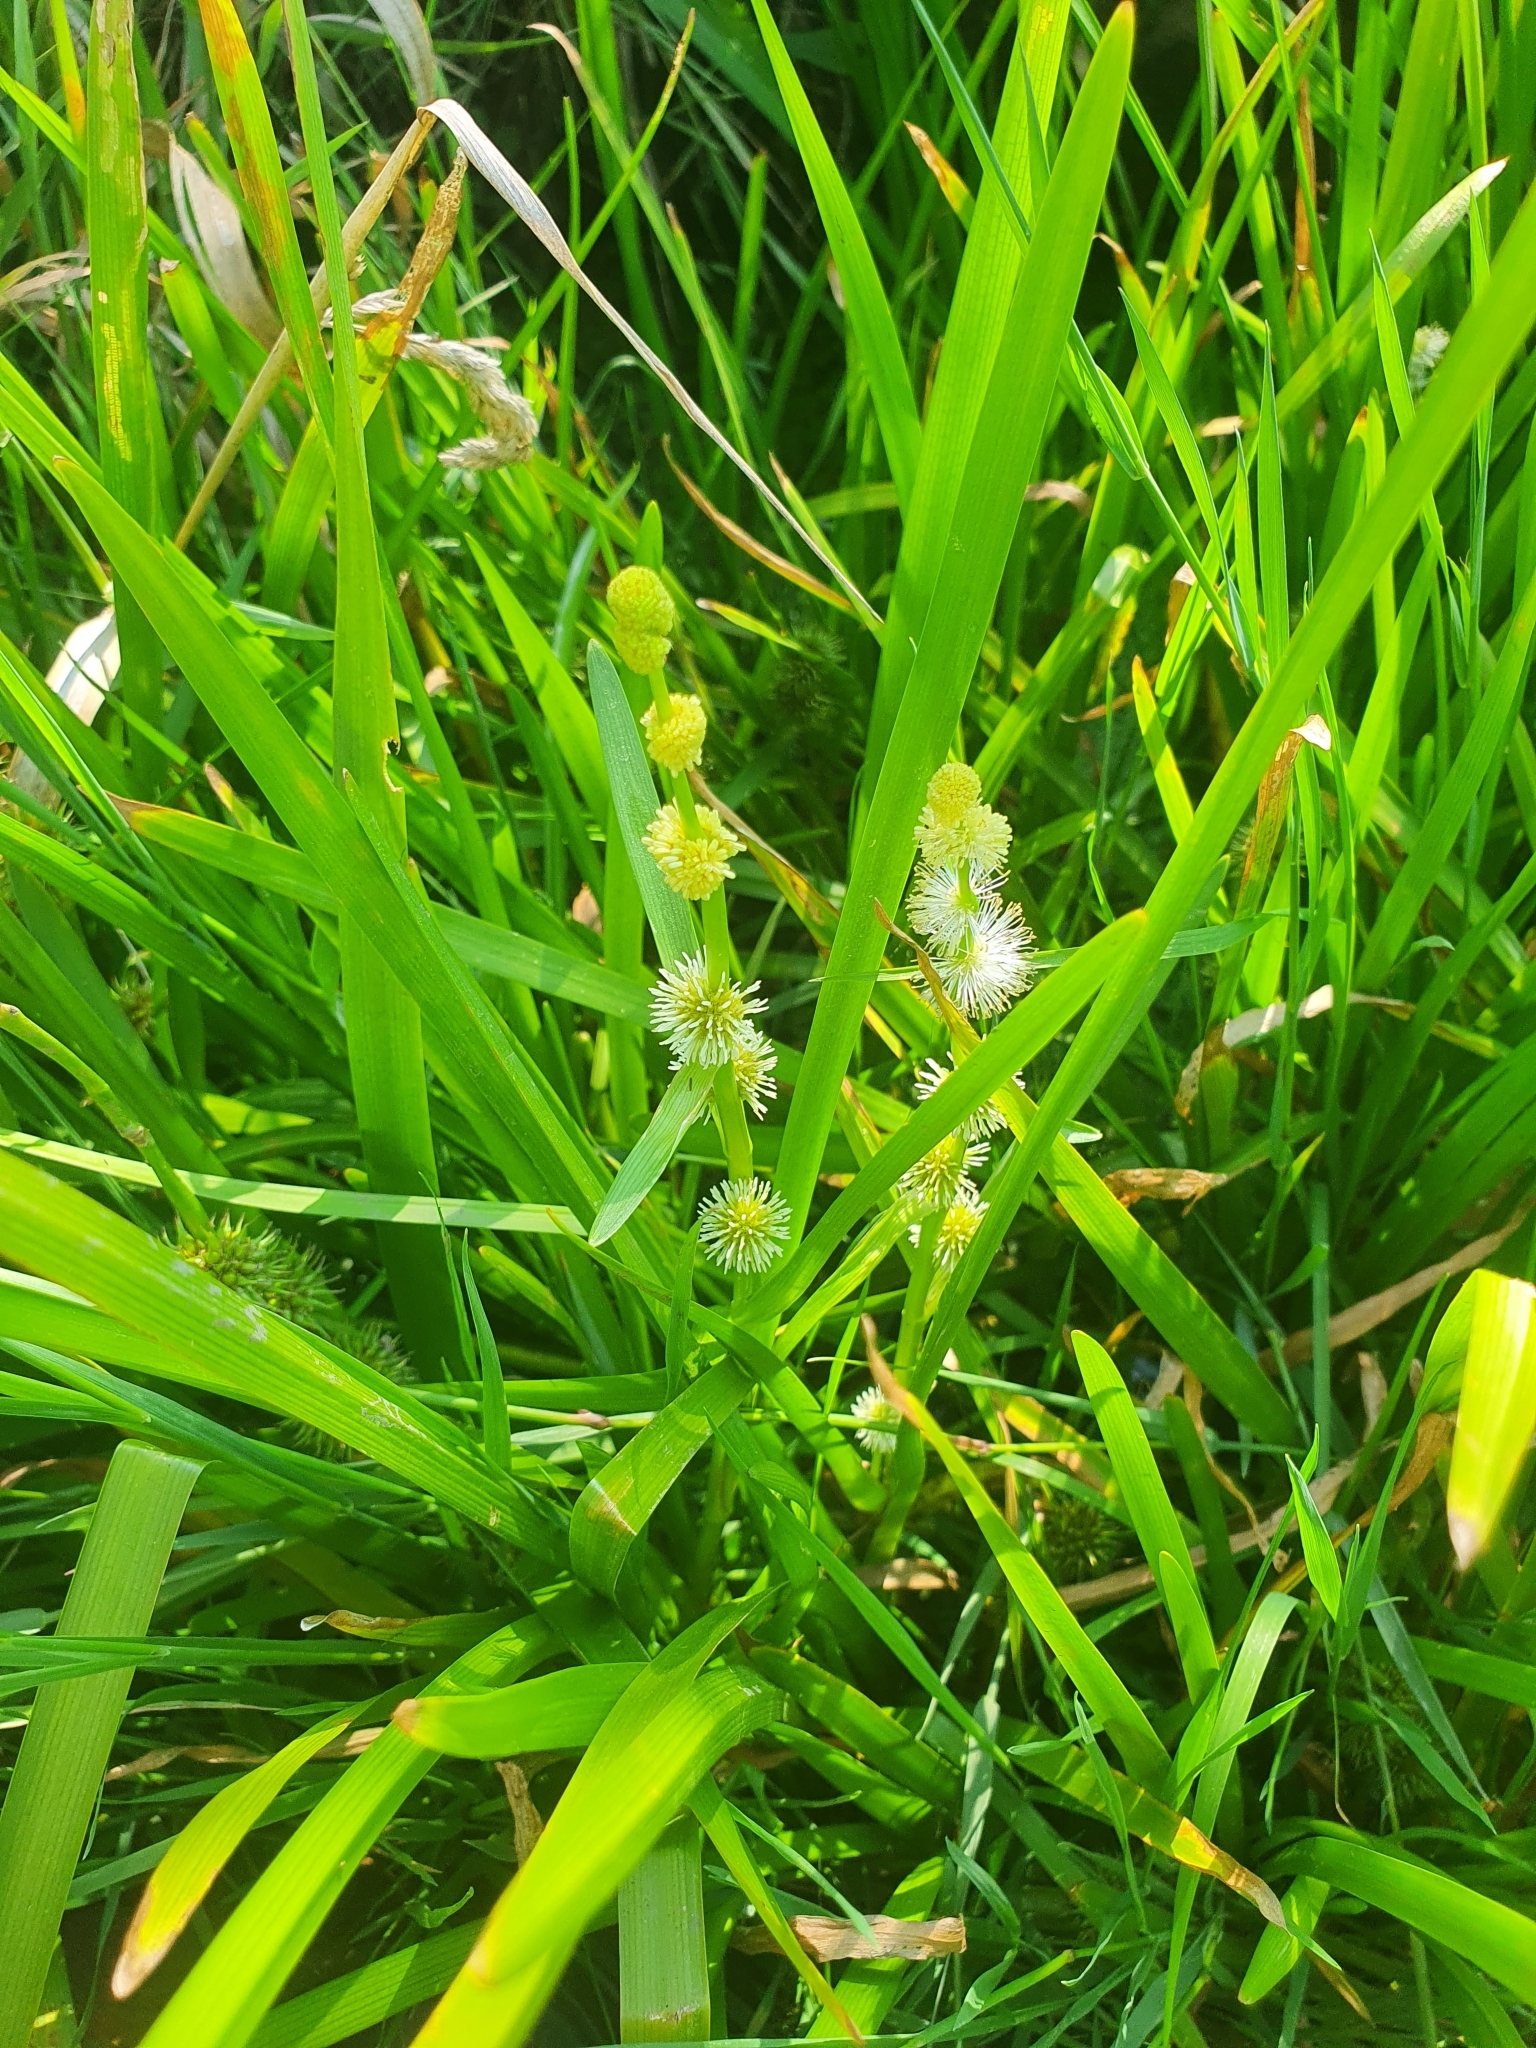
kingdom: Plantae
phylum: Tracheophyta
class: Liliopsida
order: Poales
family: Typhaceae
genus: Sparganium
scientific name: Sparganium emersum
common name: Unbranched bur-reed
